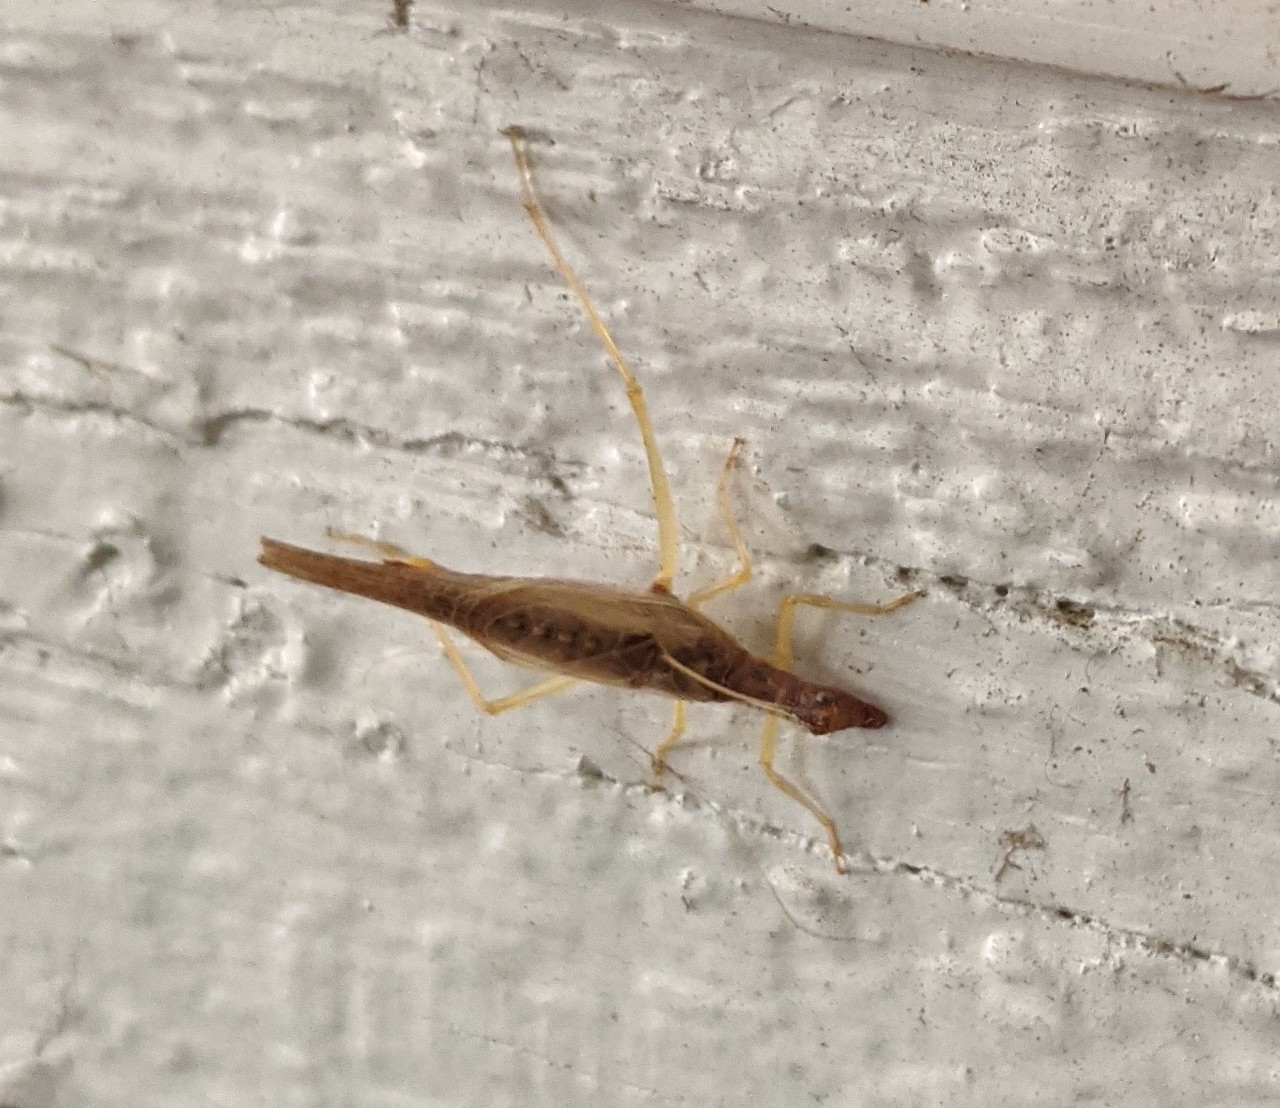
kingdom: Animalia
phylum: Arthropoda
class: Insecta
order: Orthoptera
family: Gryllidae
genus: Neoxabea
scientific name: Neoxabea bipunctata
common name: Two-spotted tree cricket
